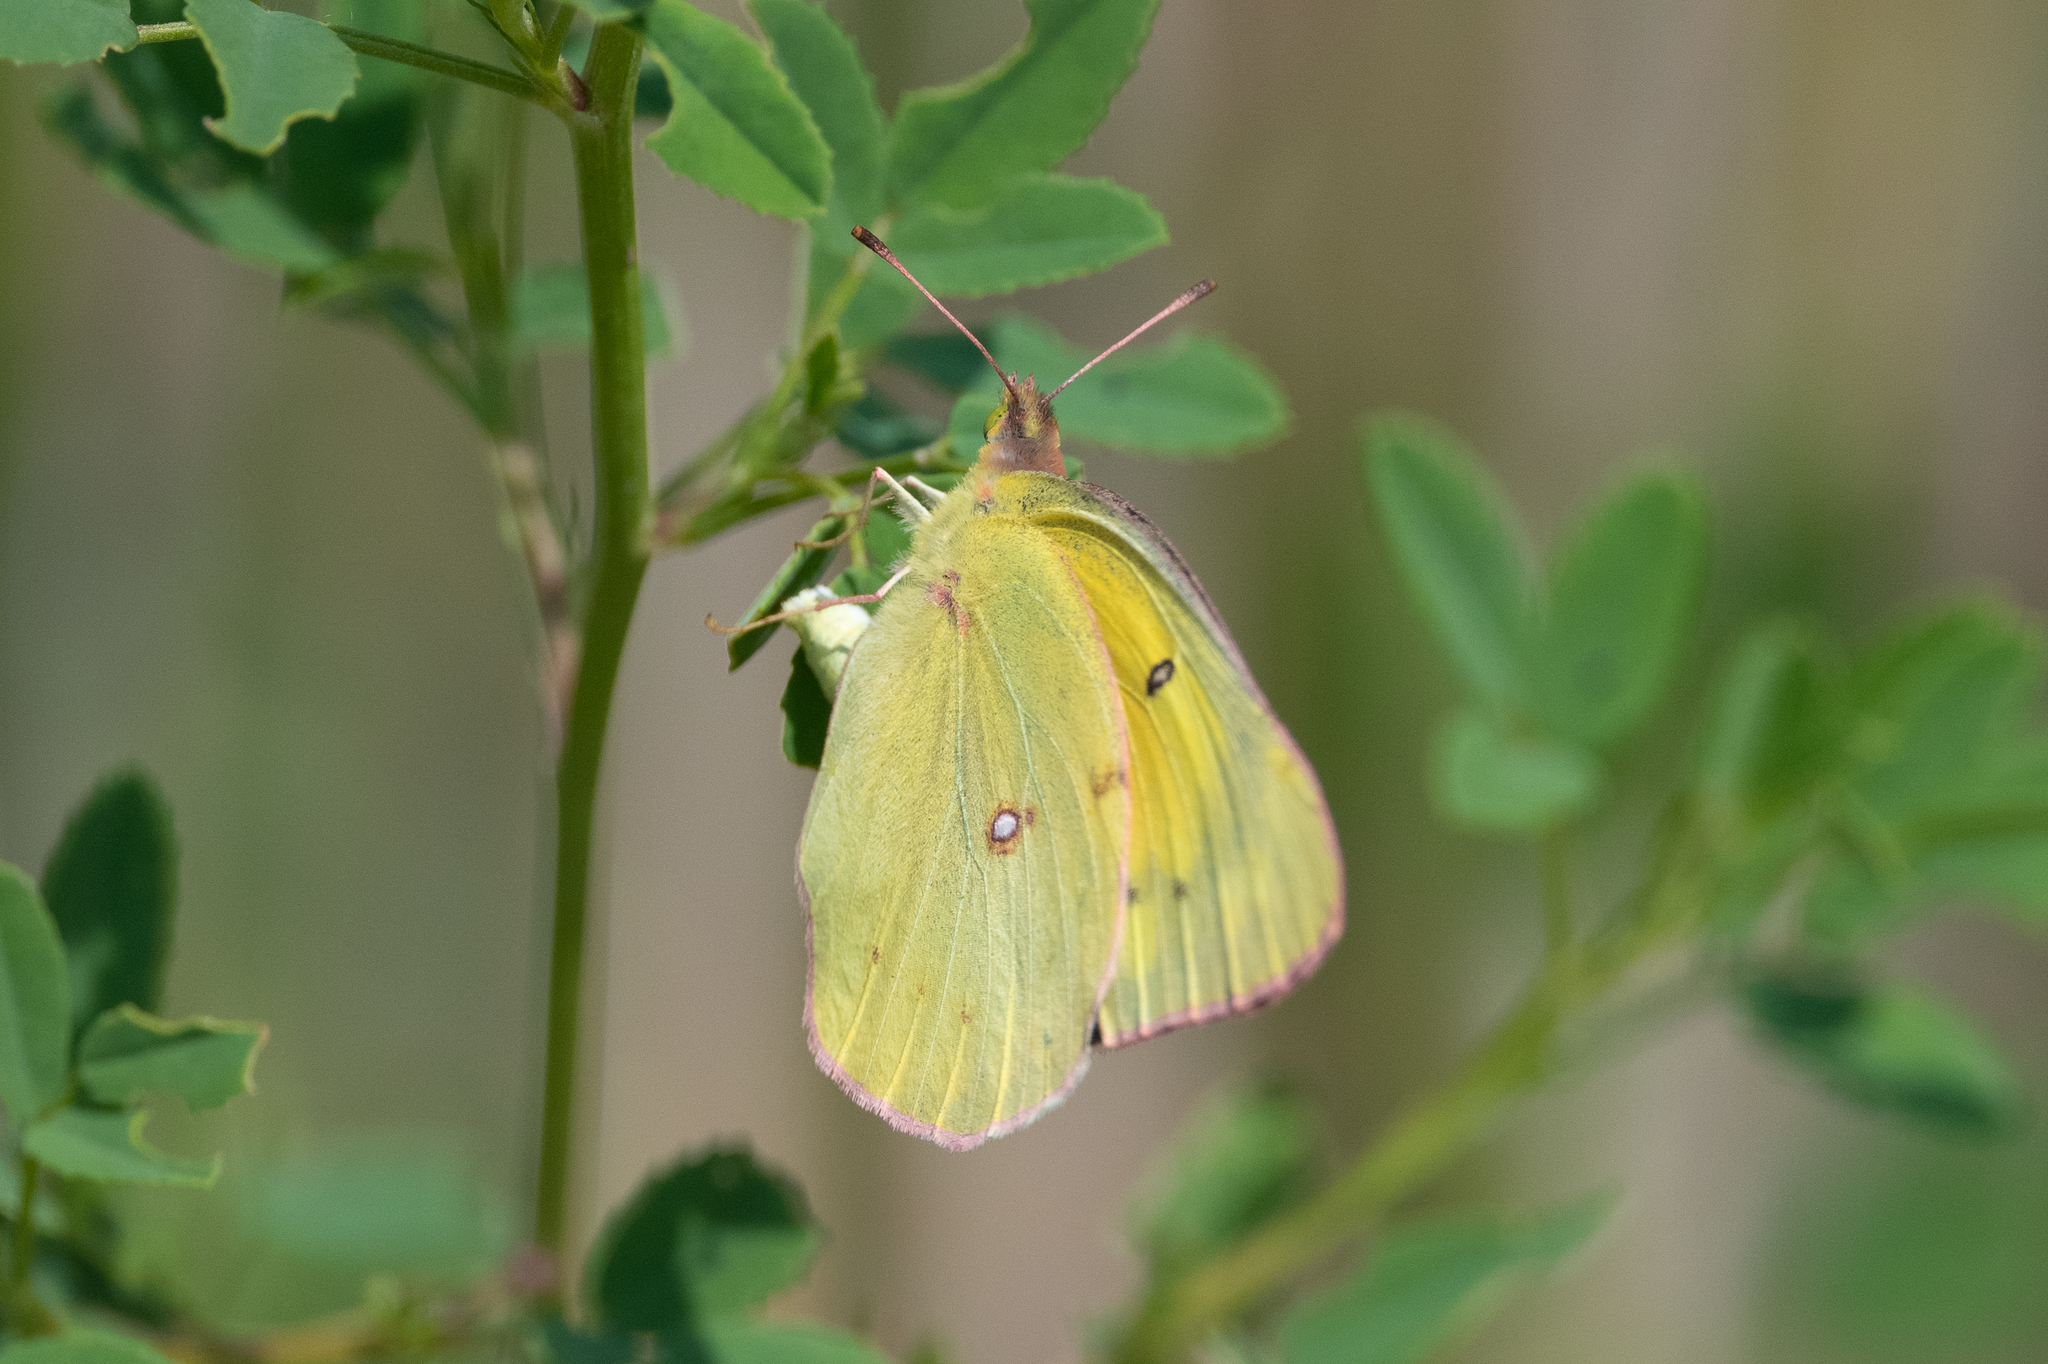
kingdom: Animalia
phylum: Arthropoda
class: Insecta
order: Lepidoptera
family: Pieridae
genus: Colias
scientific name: Colias eurytheme
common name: Alfalfa butterfly
